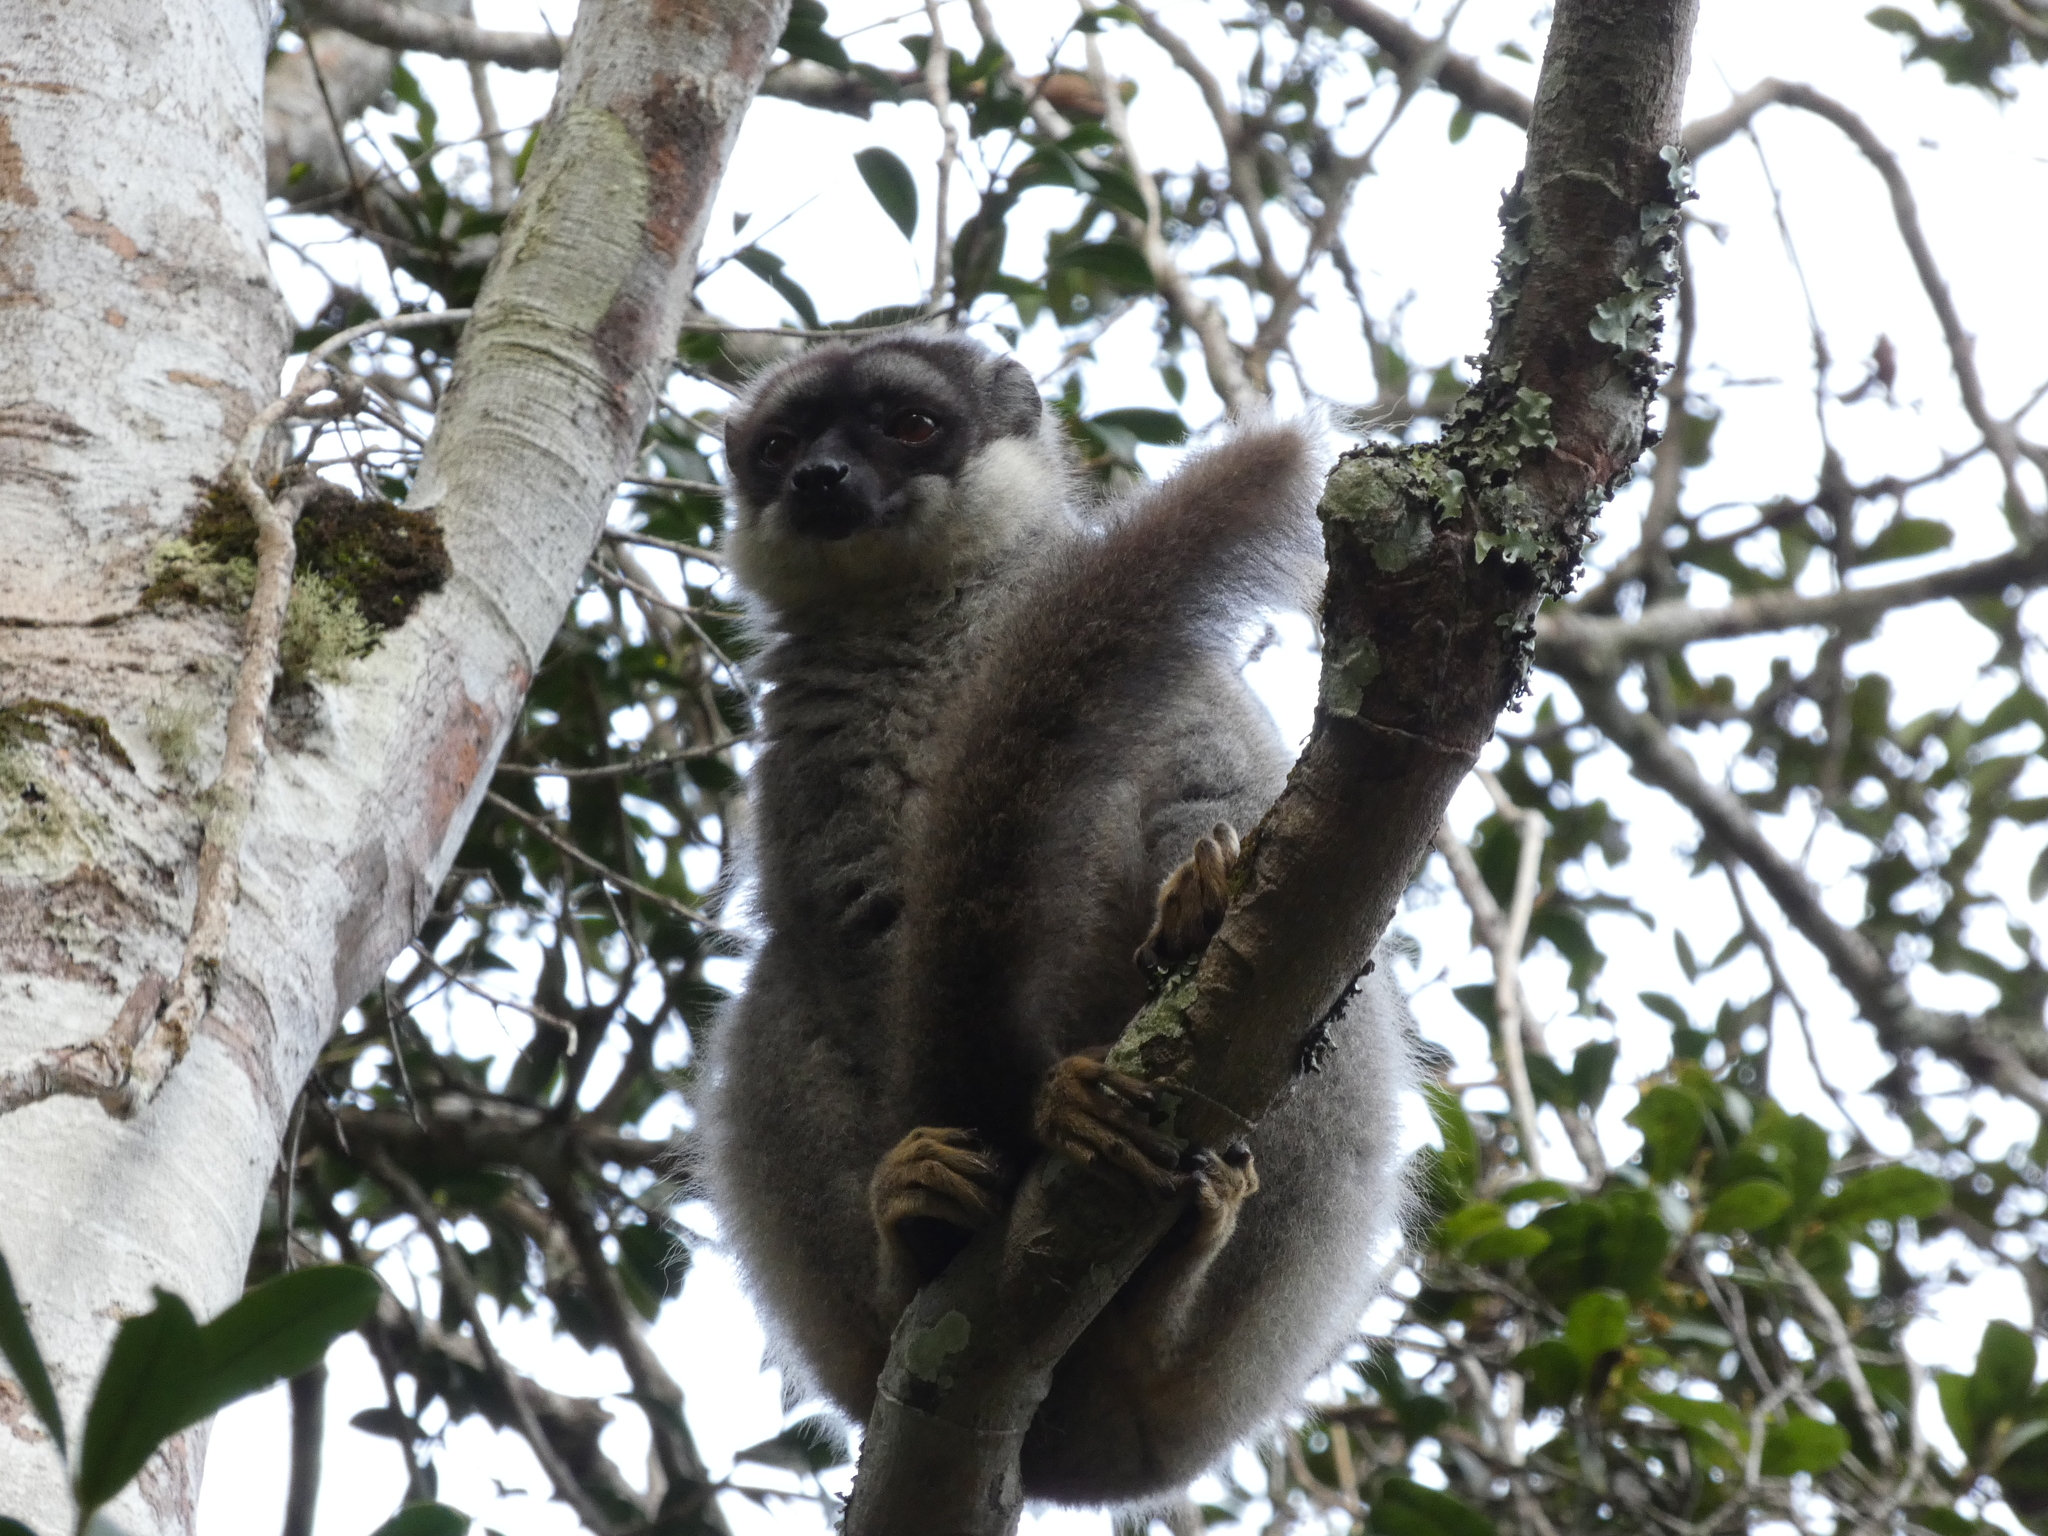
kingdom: Animalia
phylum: Chordata
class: Mammalia
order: Primates
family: Lemuridae
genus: Eulemur
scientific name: Eulemur fulvus
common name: Brown lemur
